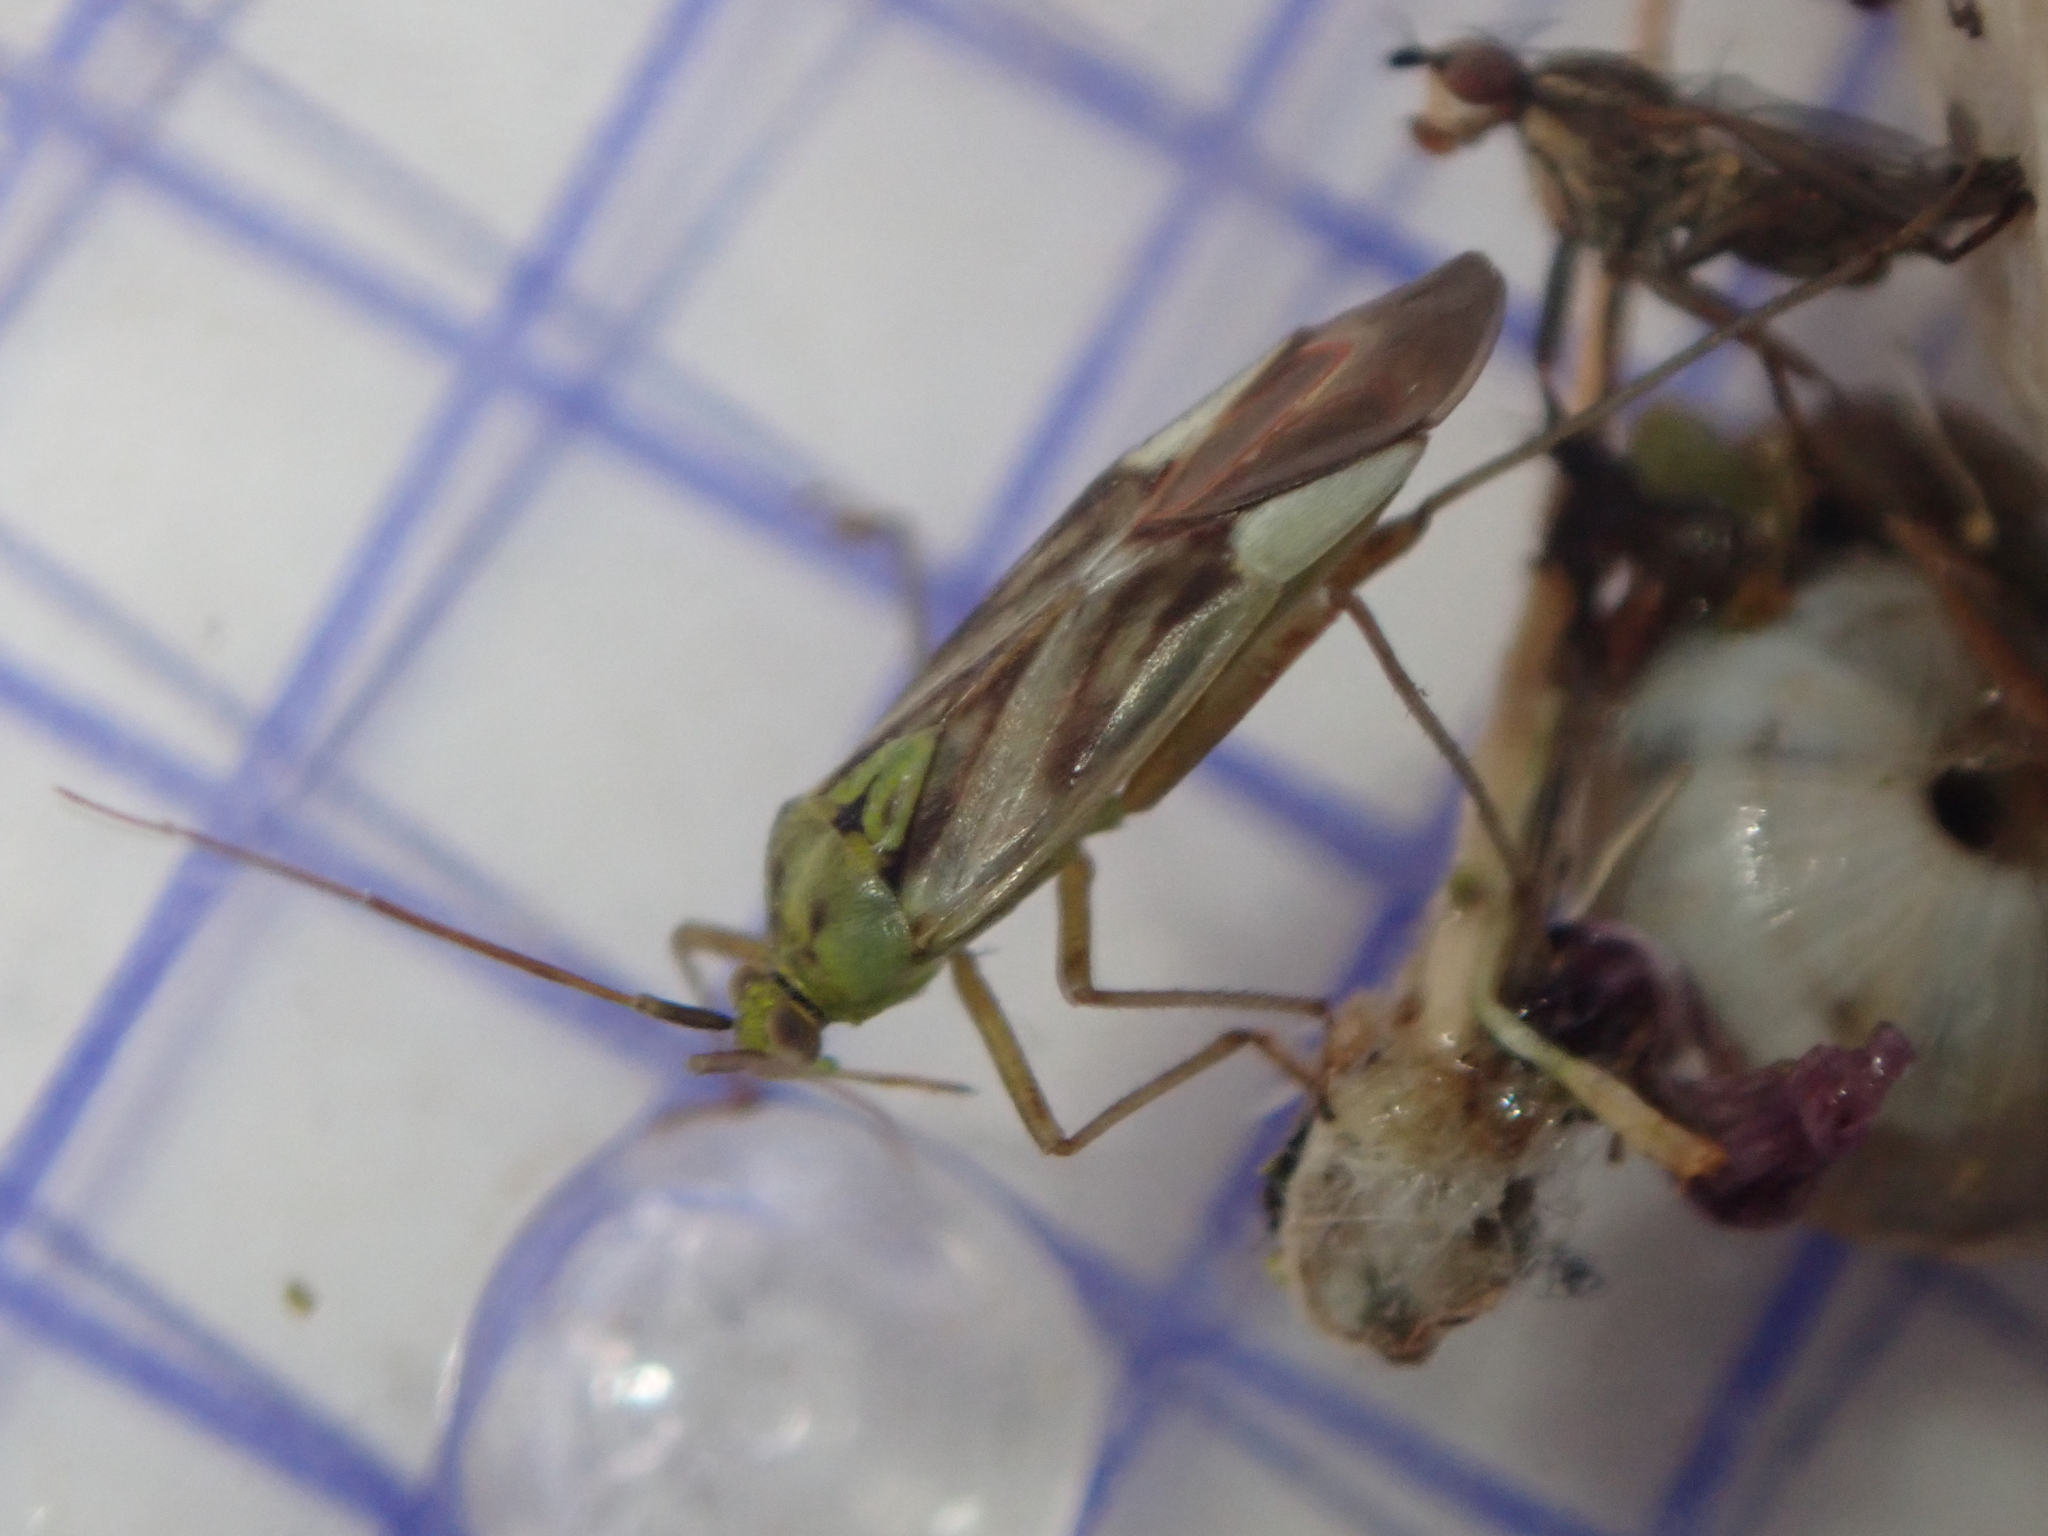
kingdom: Animalia
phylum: Arthropoda
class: Insecta
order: Hemiptera
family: Miridae
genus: Reuterista
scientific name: Reuterista instabilis
